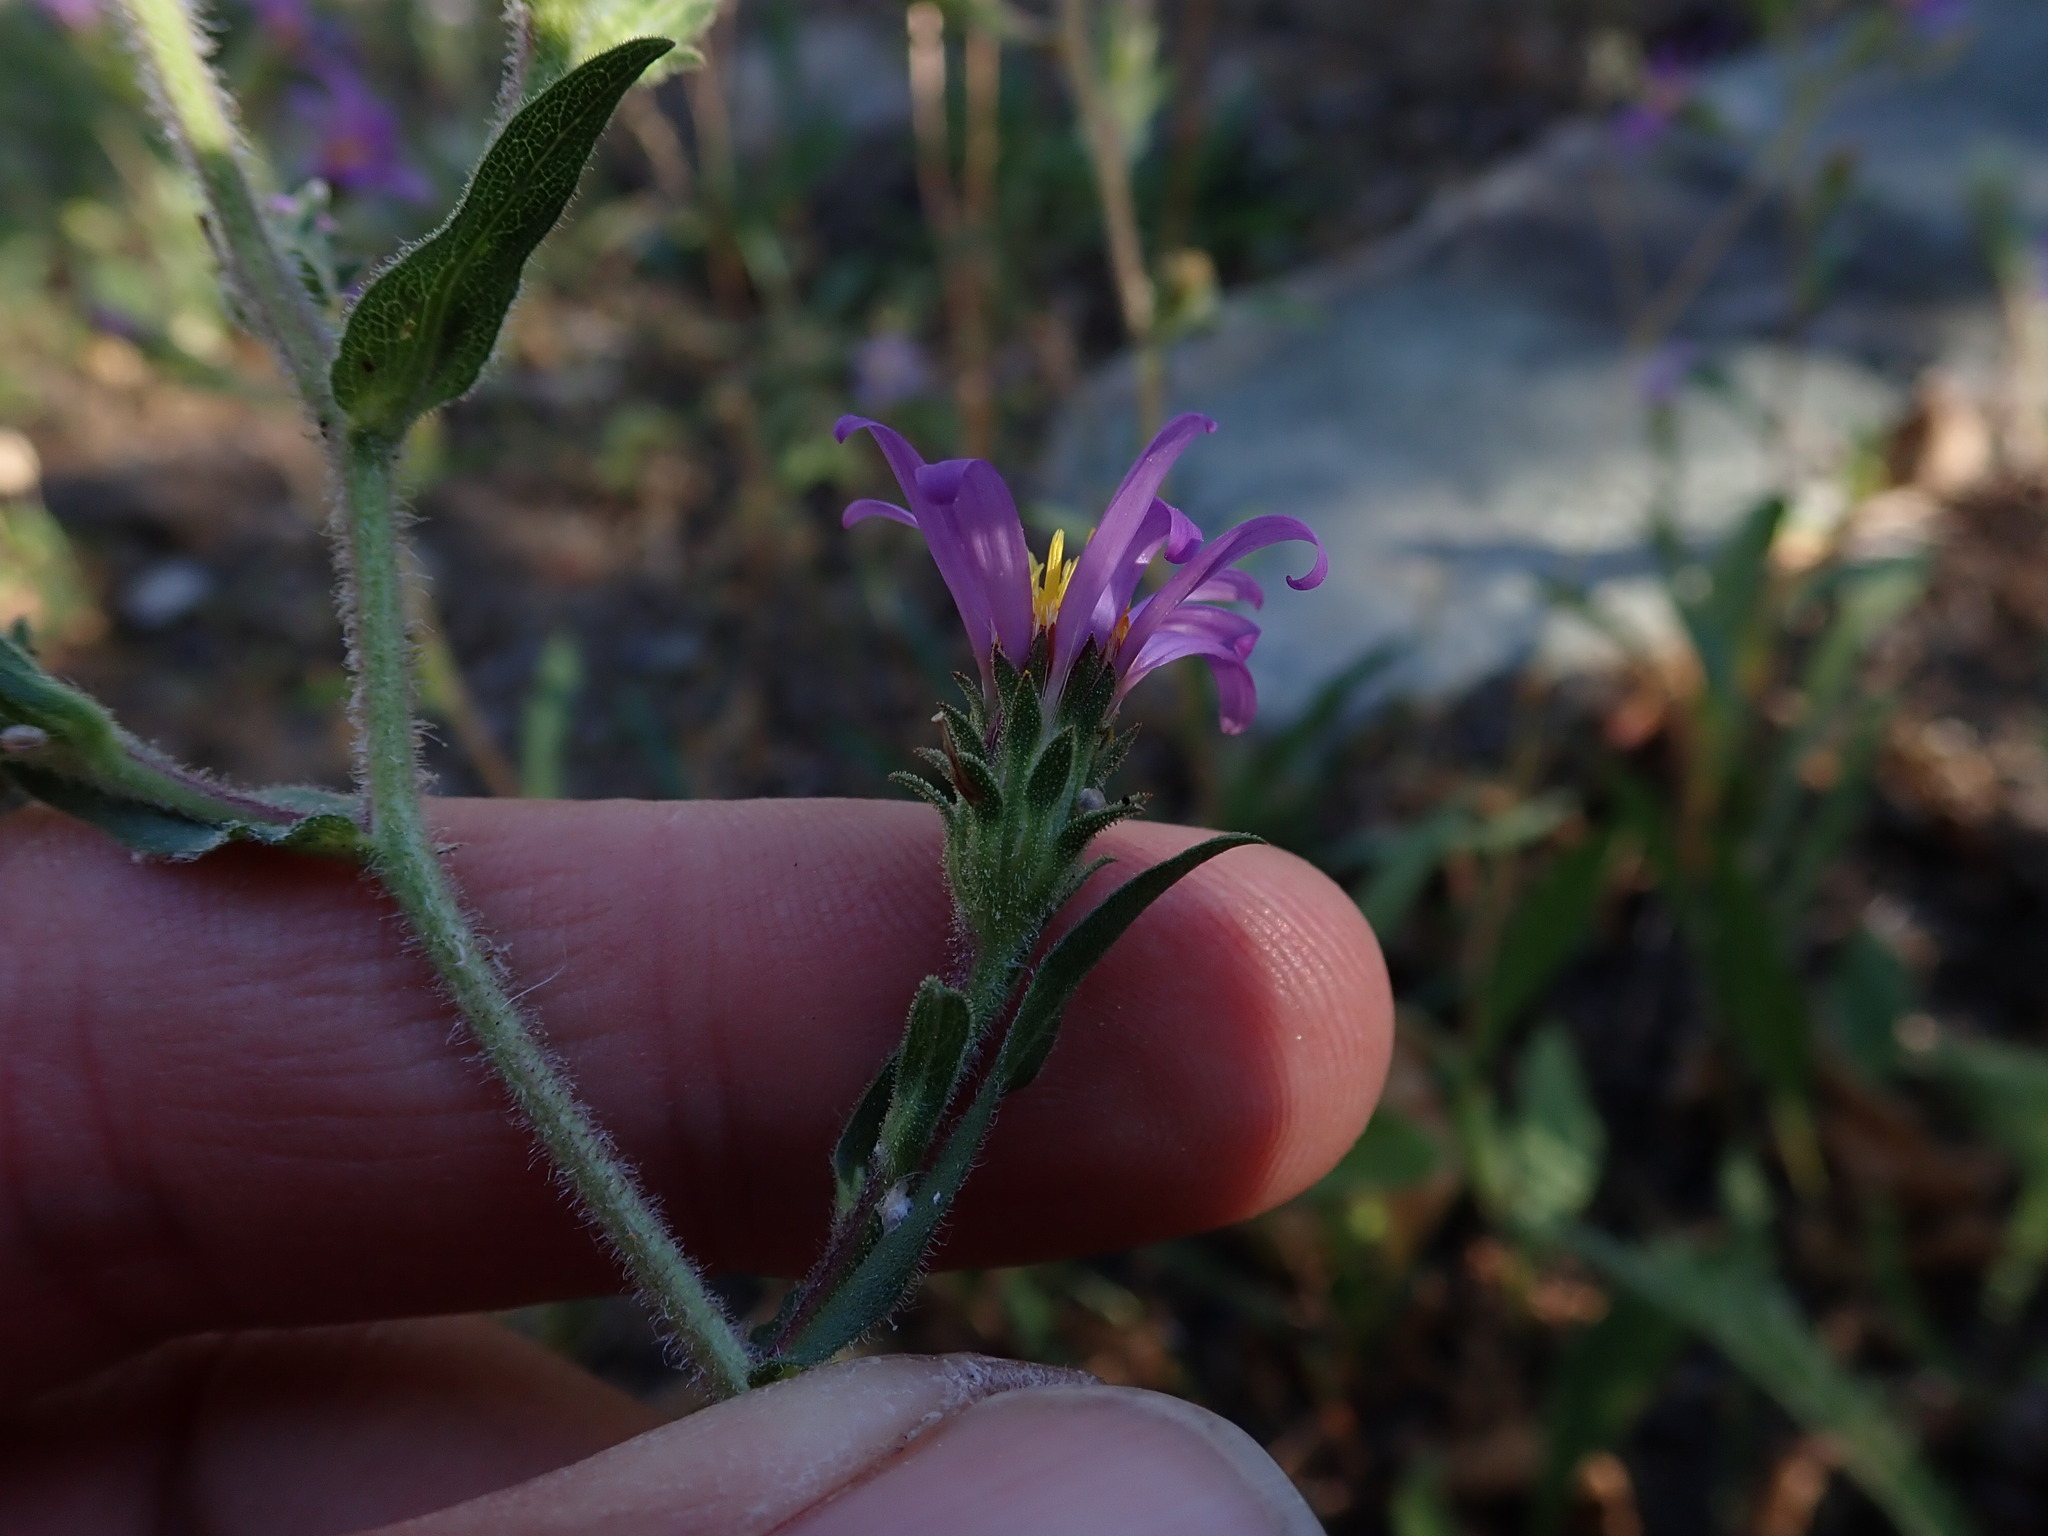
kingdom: Plantae
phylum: Tracheophyta
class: Magnoliopsida
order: Asterales
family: Asteraceae
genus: Eurybia
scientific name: Eurybia integrifolia
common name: Thick-stem aster
